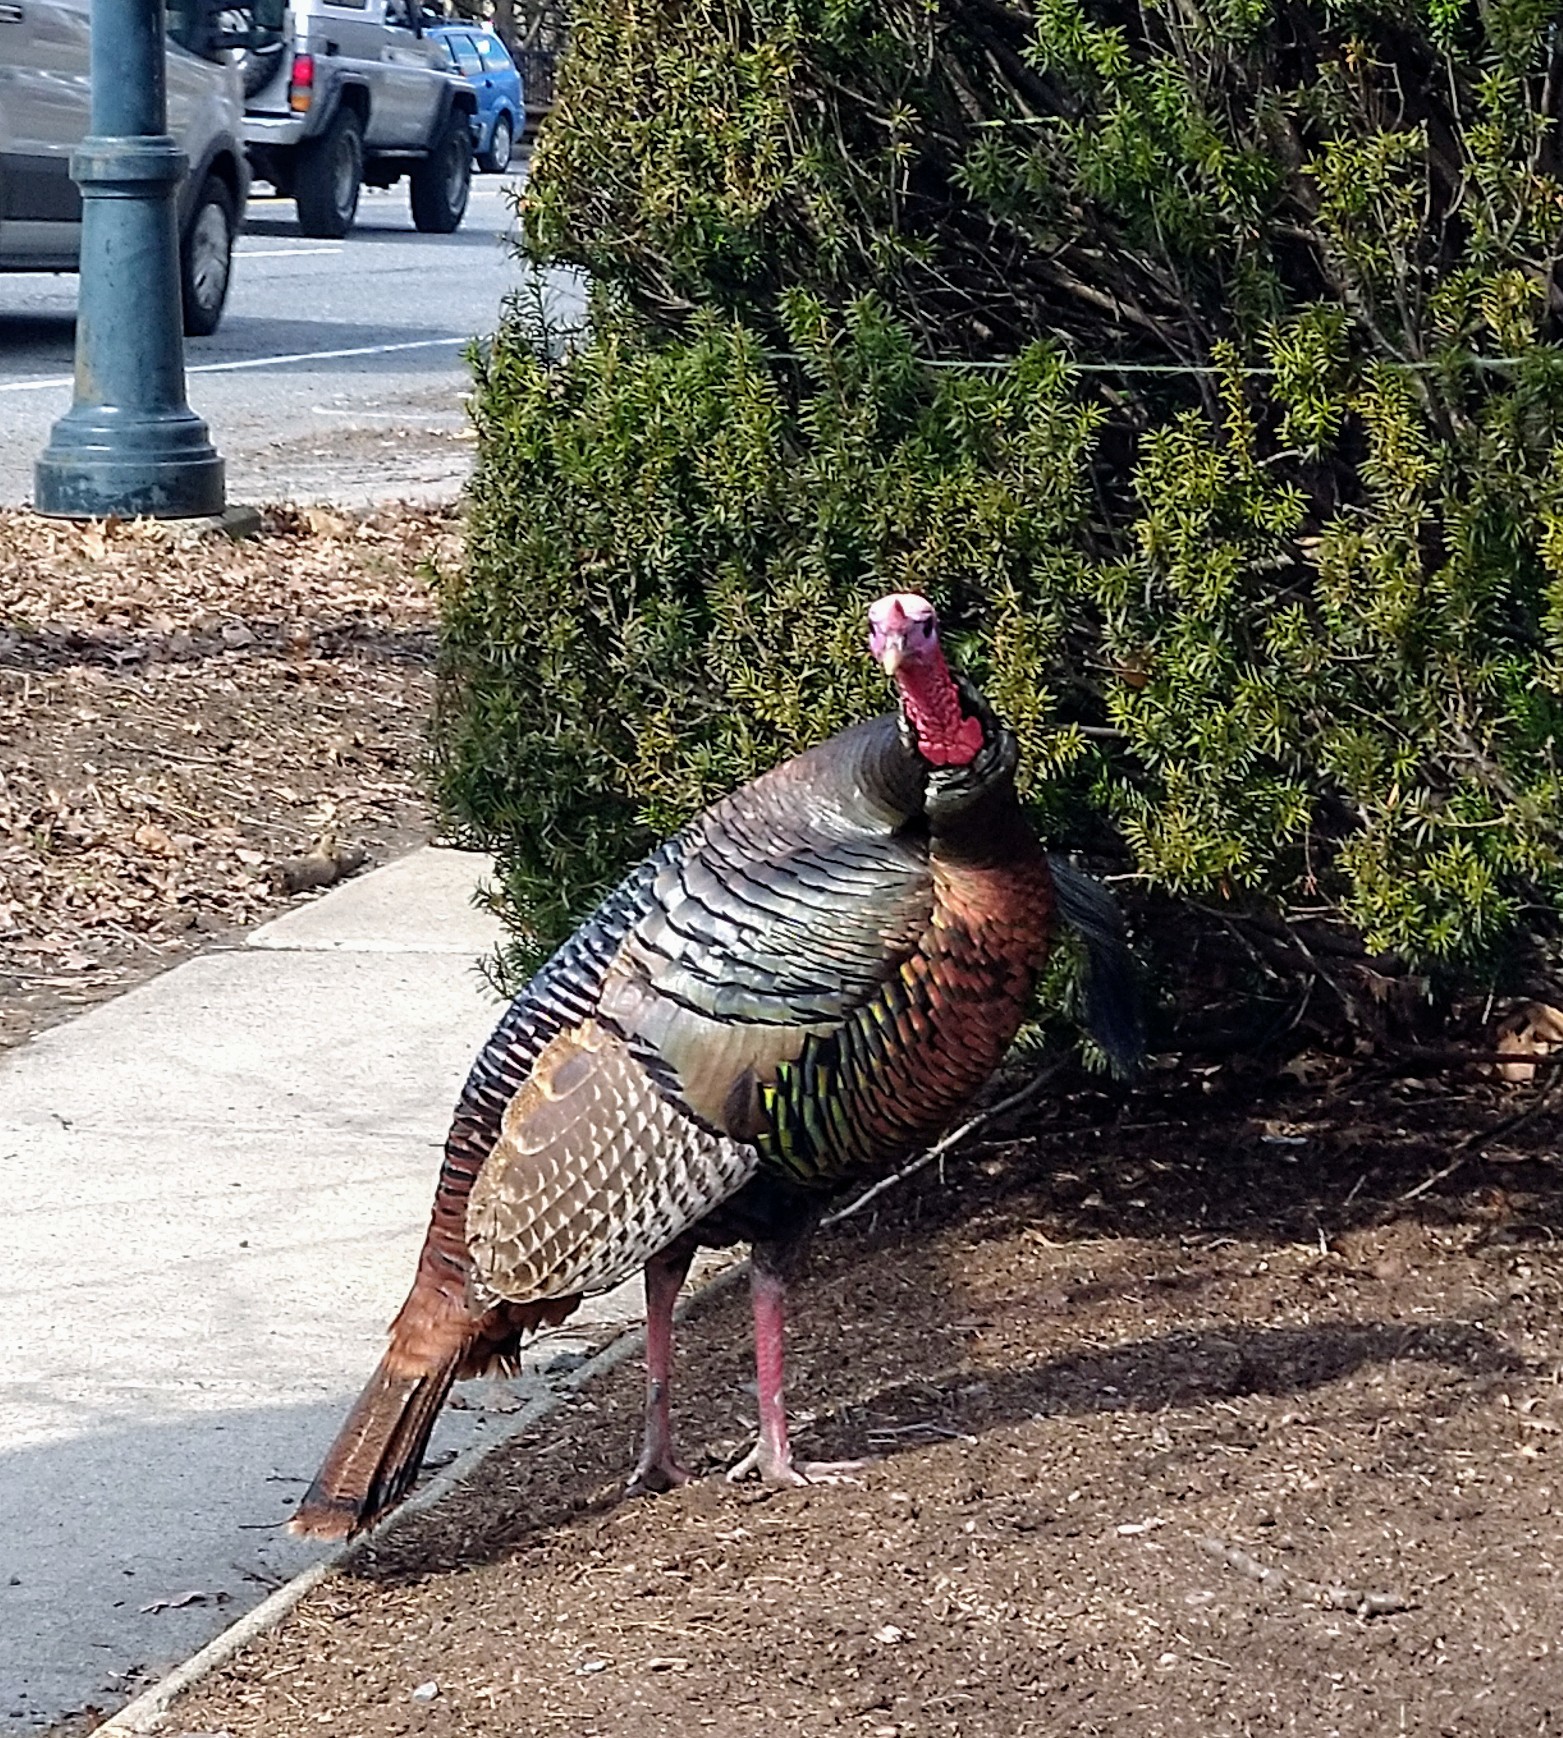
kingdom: Animalia
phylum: Chordata
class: Aves
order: Galliformes
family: Phasianidae
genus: Meleagris
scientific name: Meleagris gallopavo
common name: Wild turkey
